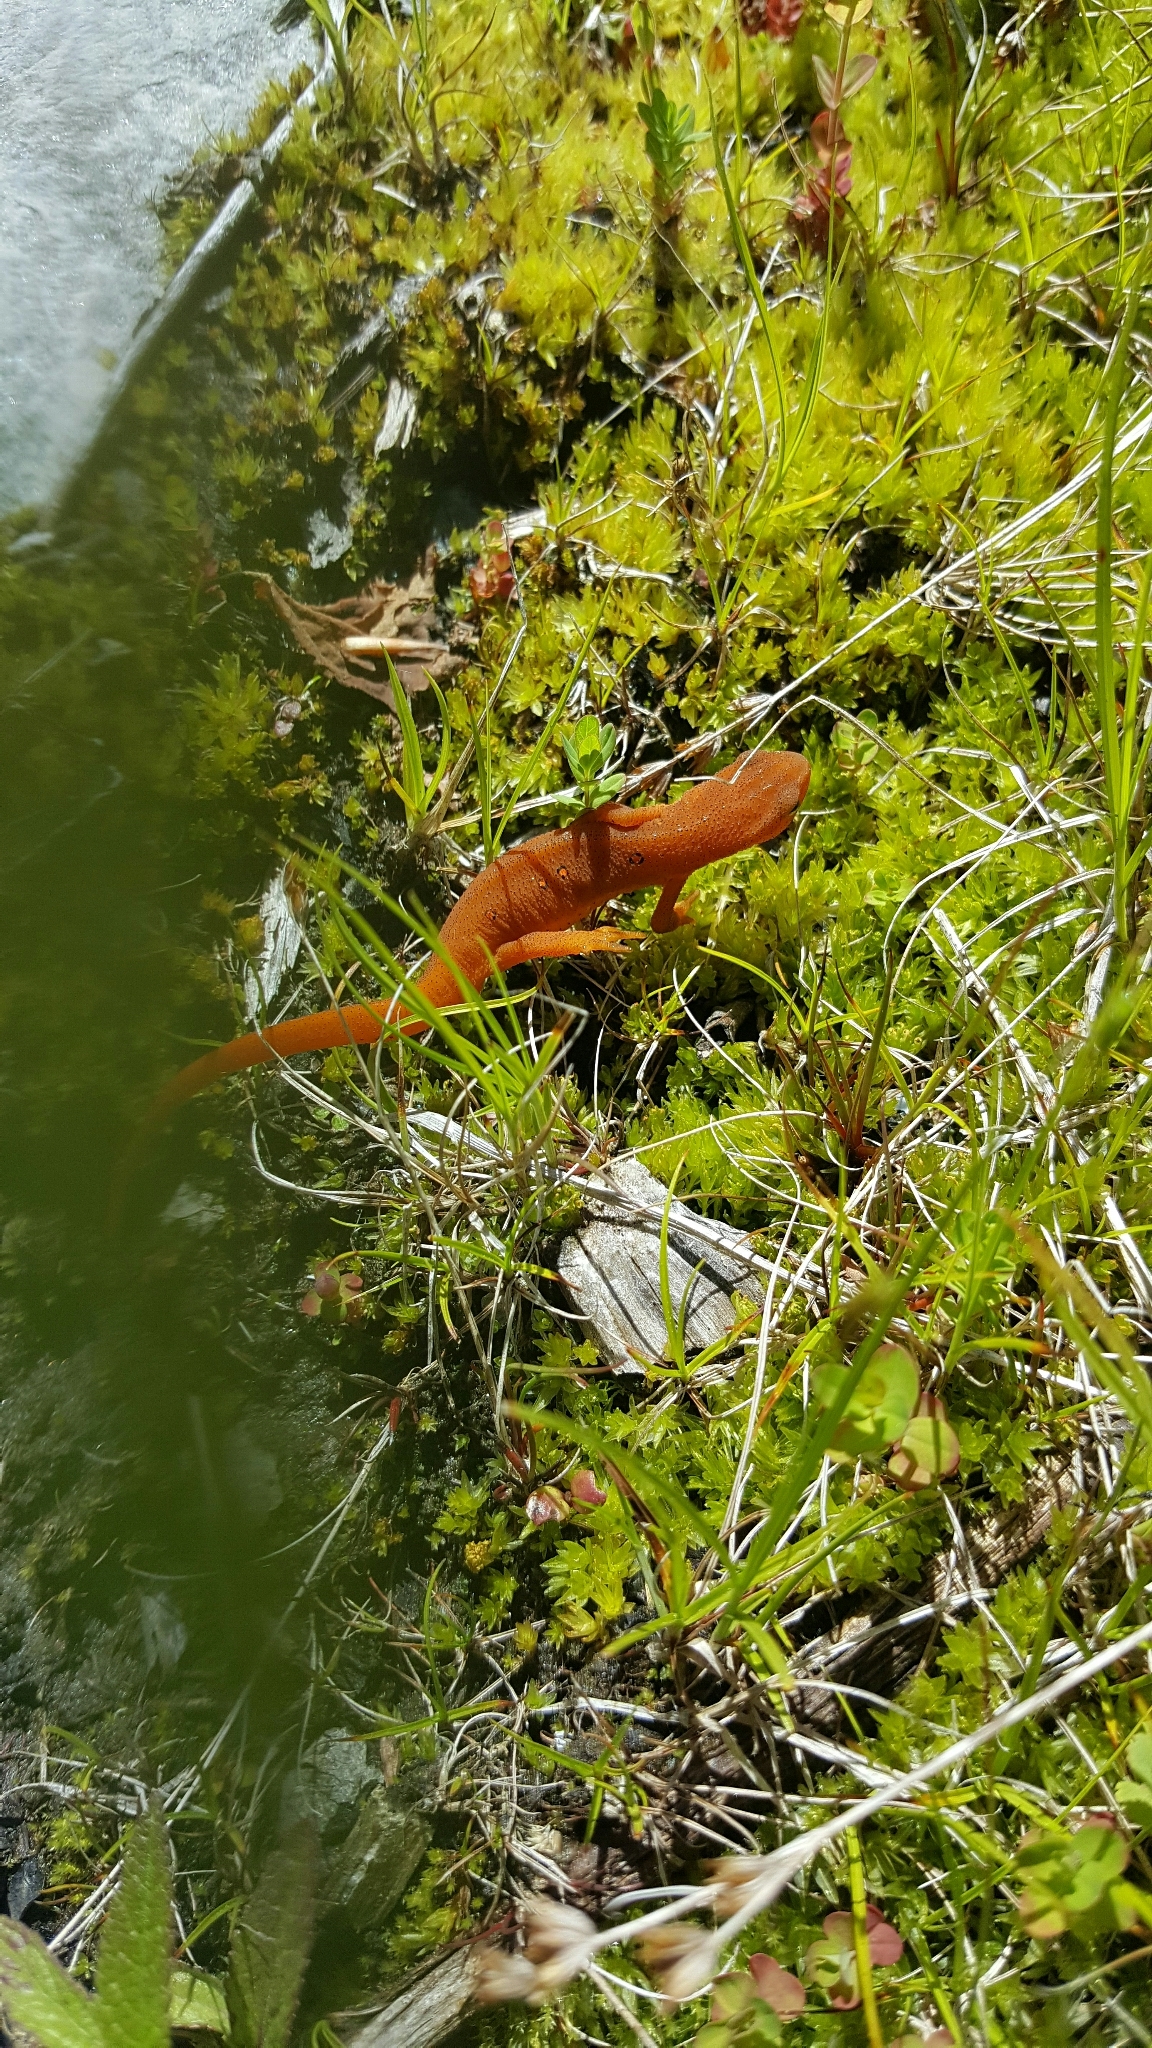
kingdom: Animalia
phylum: Chordata
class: Amphibia
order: Caudata
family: Salamandridae
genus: Notophthalmus
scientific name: Notophthalmus viridescens
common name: Eastern newt
